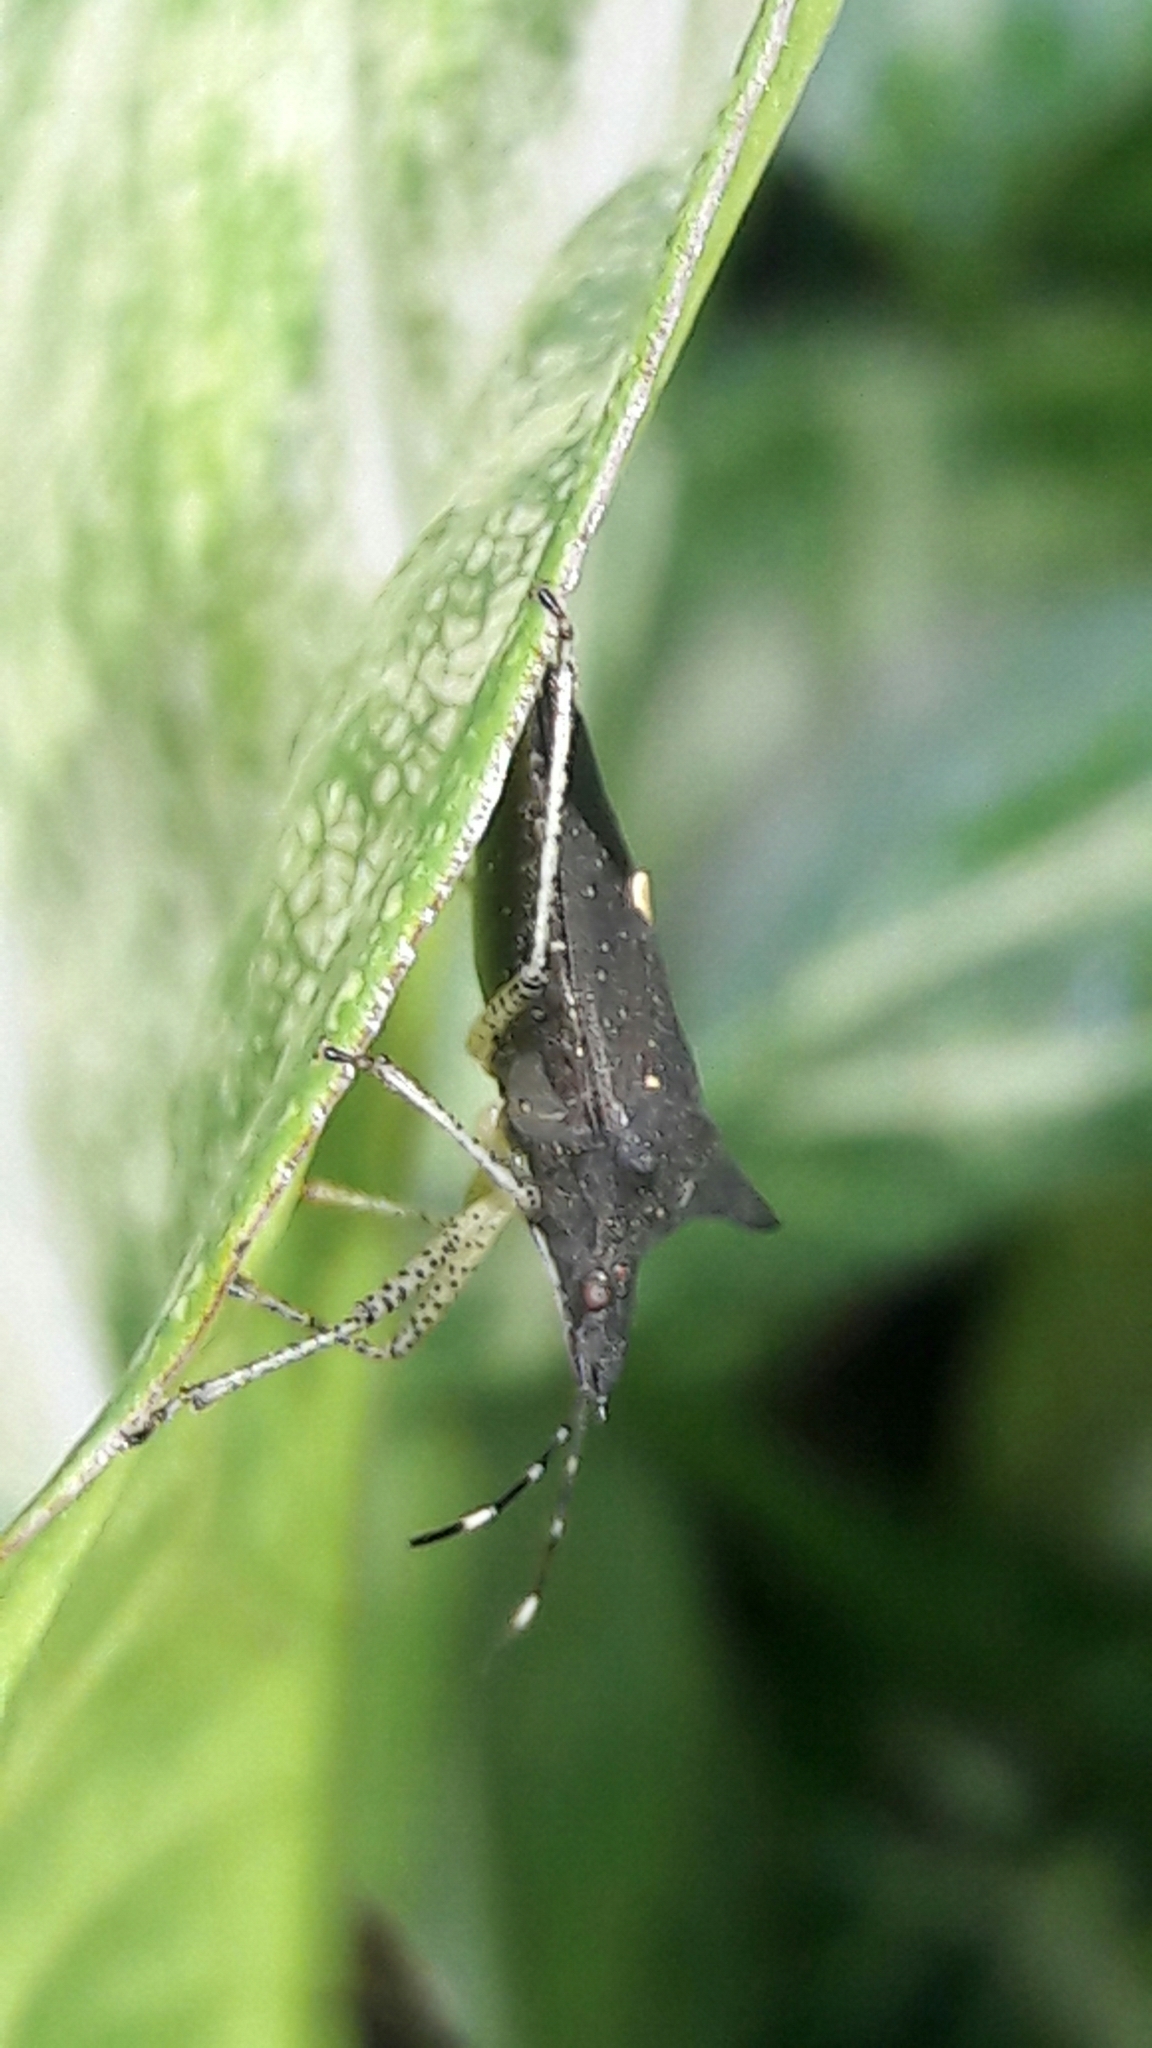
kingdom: Animalia
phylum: Arthropoda
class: Insecta
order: Hemiptera
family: Pentatomidae
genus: Proxys
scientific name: Proxys albopunctulatus
